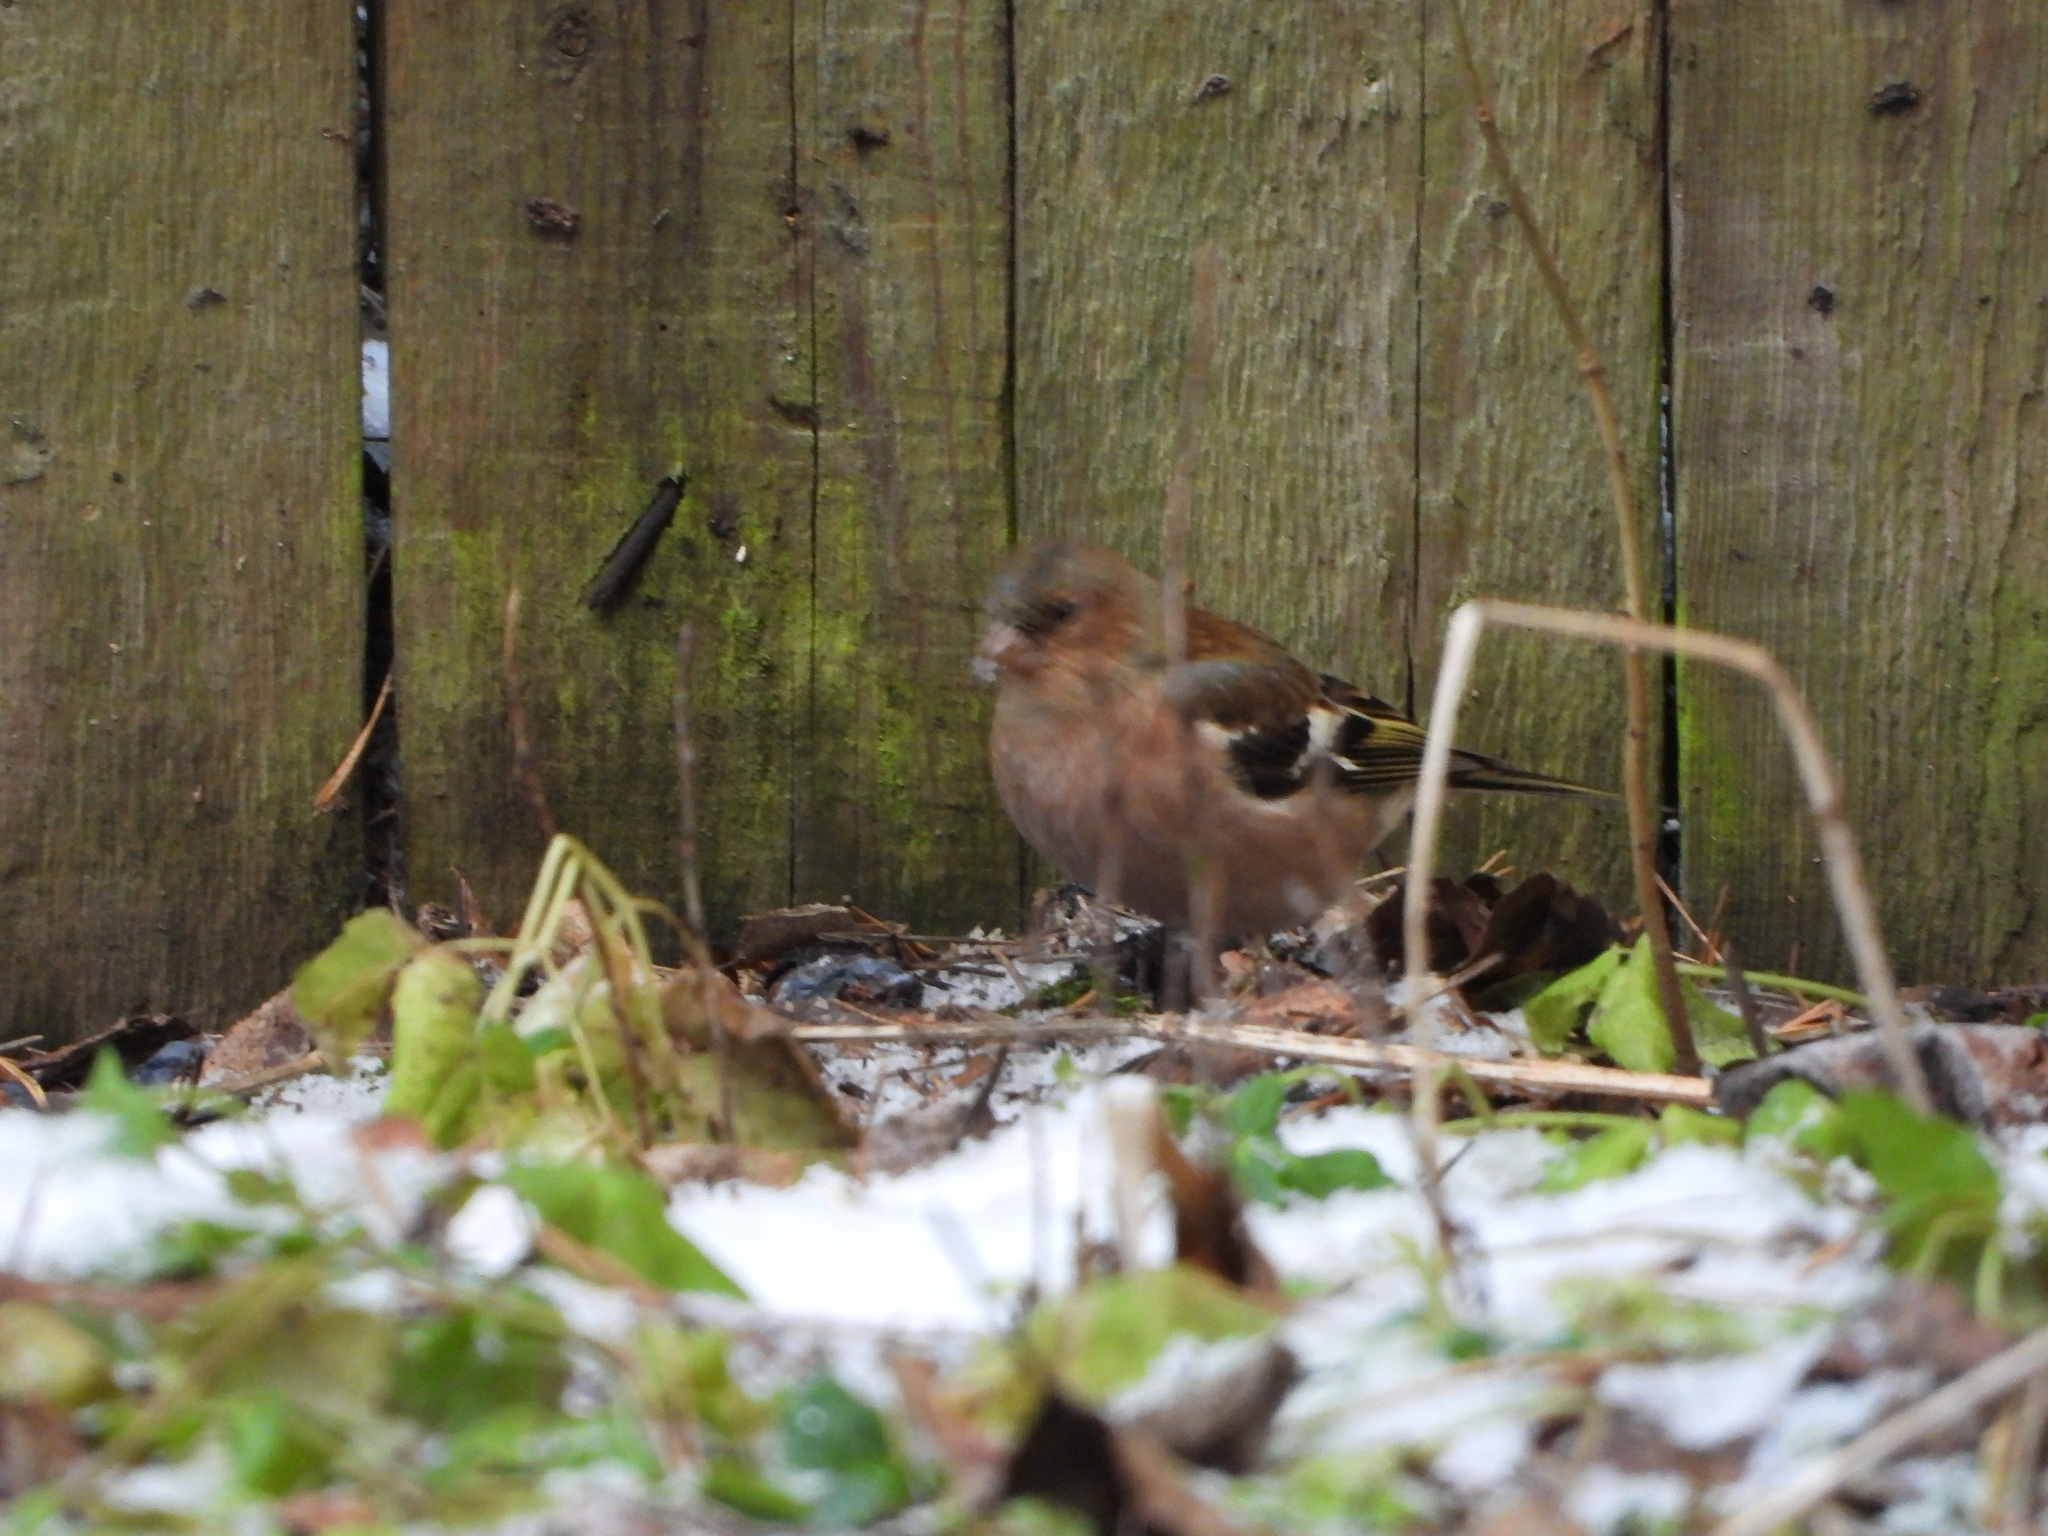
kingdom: Animalia
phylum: Chordata
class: Aves
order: Passeriformes
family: Fringillidae
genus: Fringilla
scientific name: Fringilla coelebs
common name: Common chaffinch
